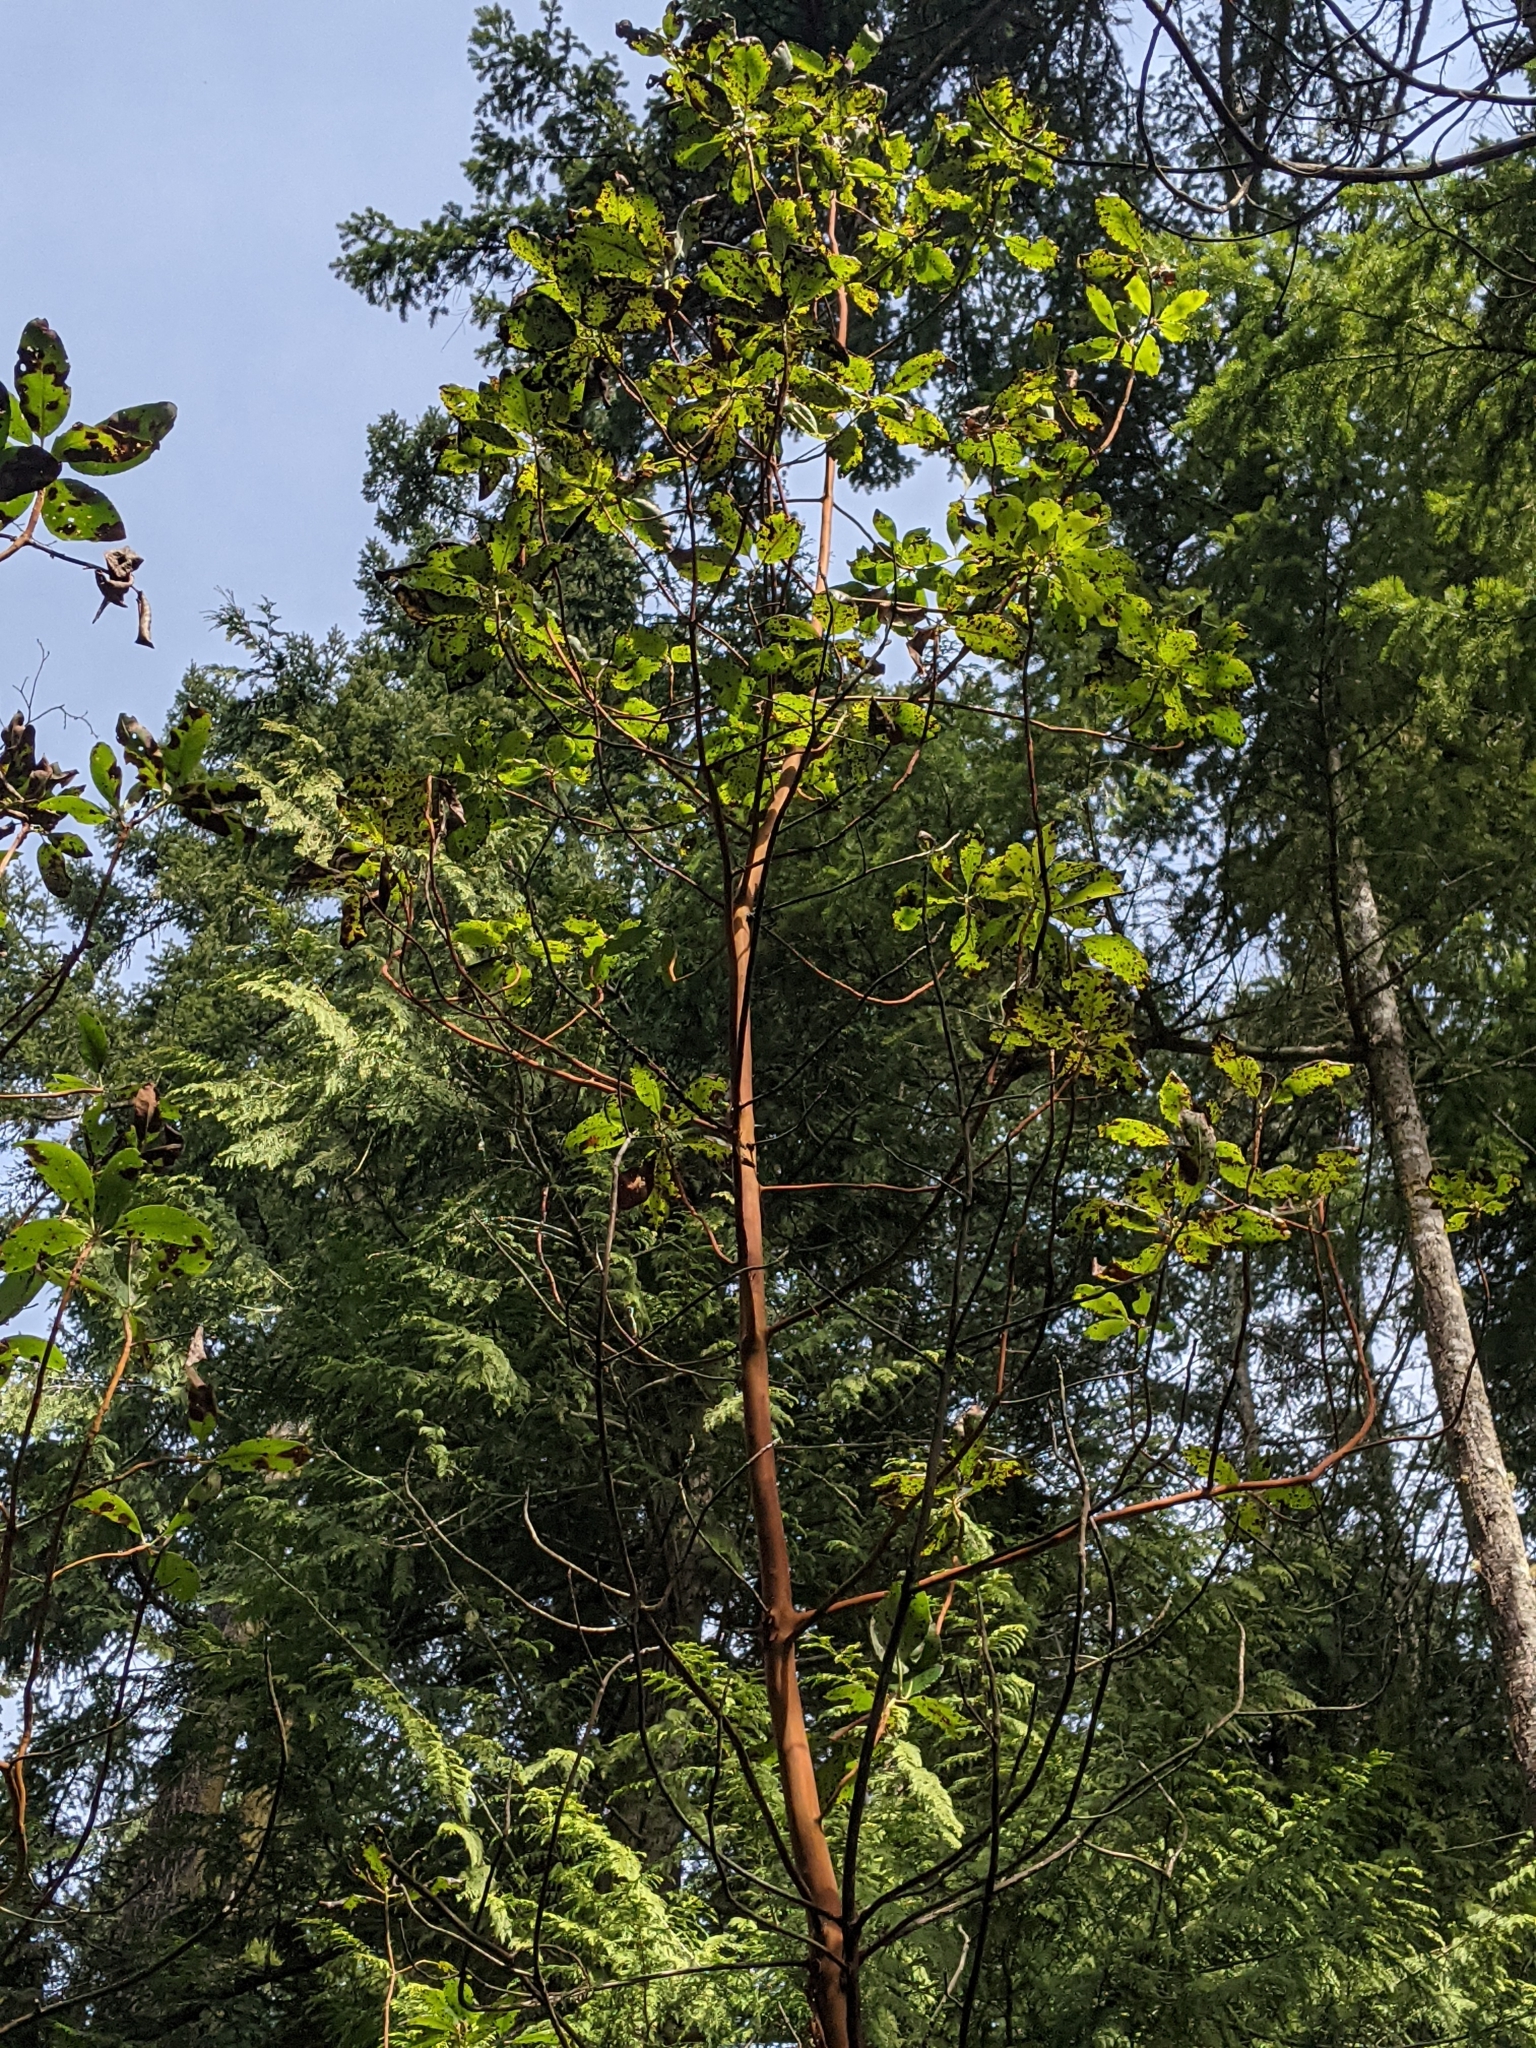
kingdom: Plantae
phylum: Tracheophyta
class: Magnoliopsida
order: Ericales
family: Ericaceae
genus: Arbutus
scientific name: Arbutus menziesii
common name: Pacific madrone
